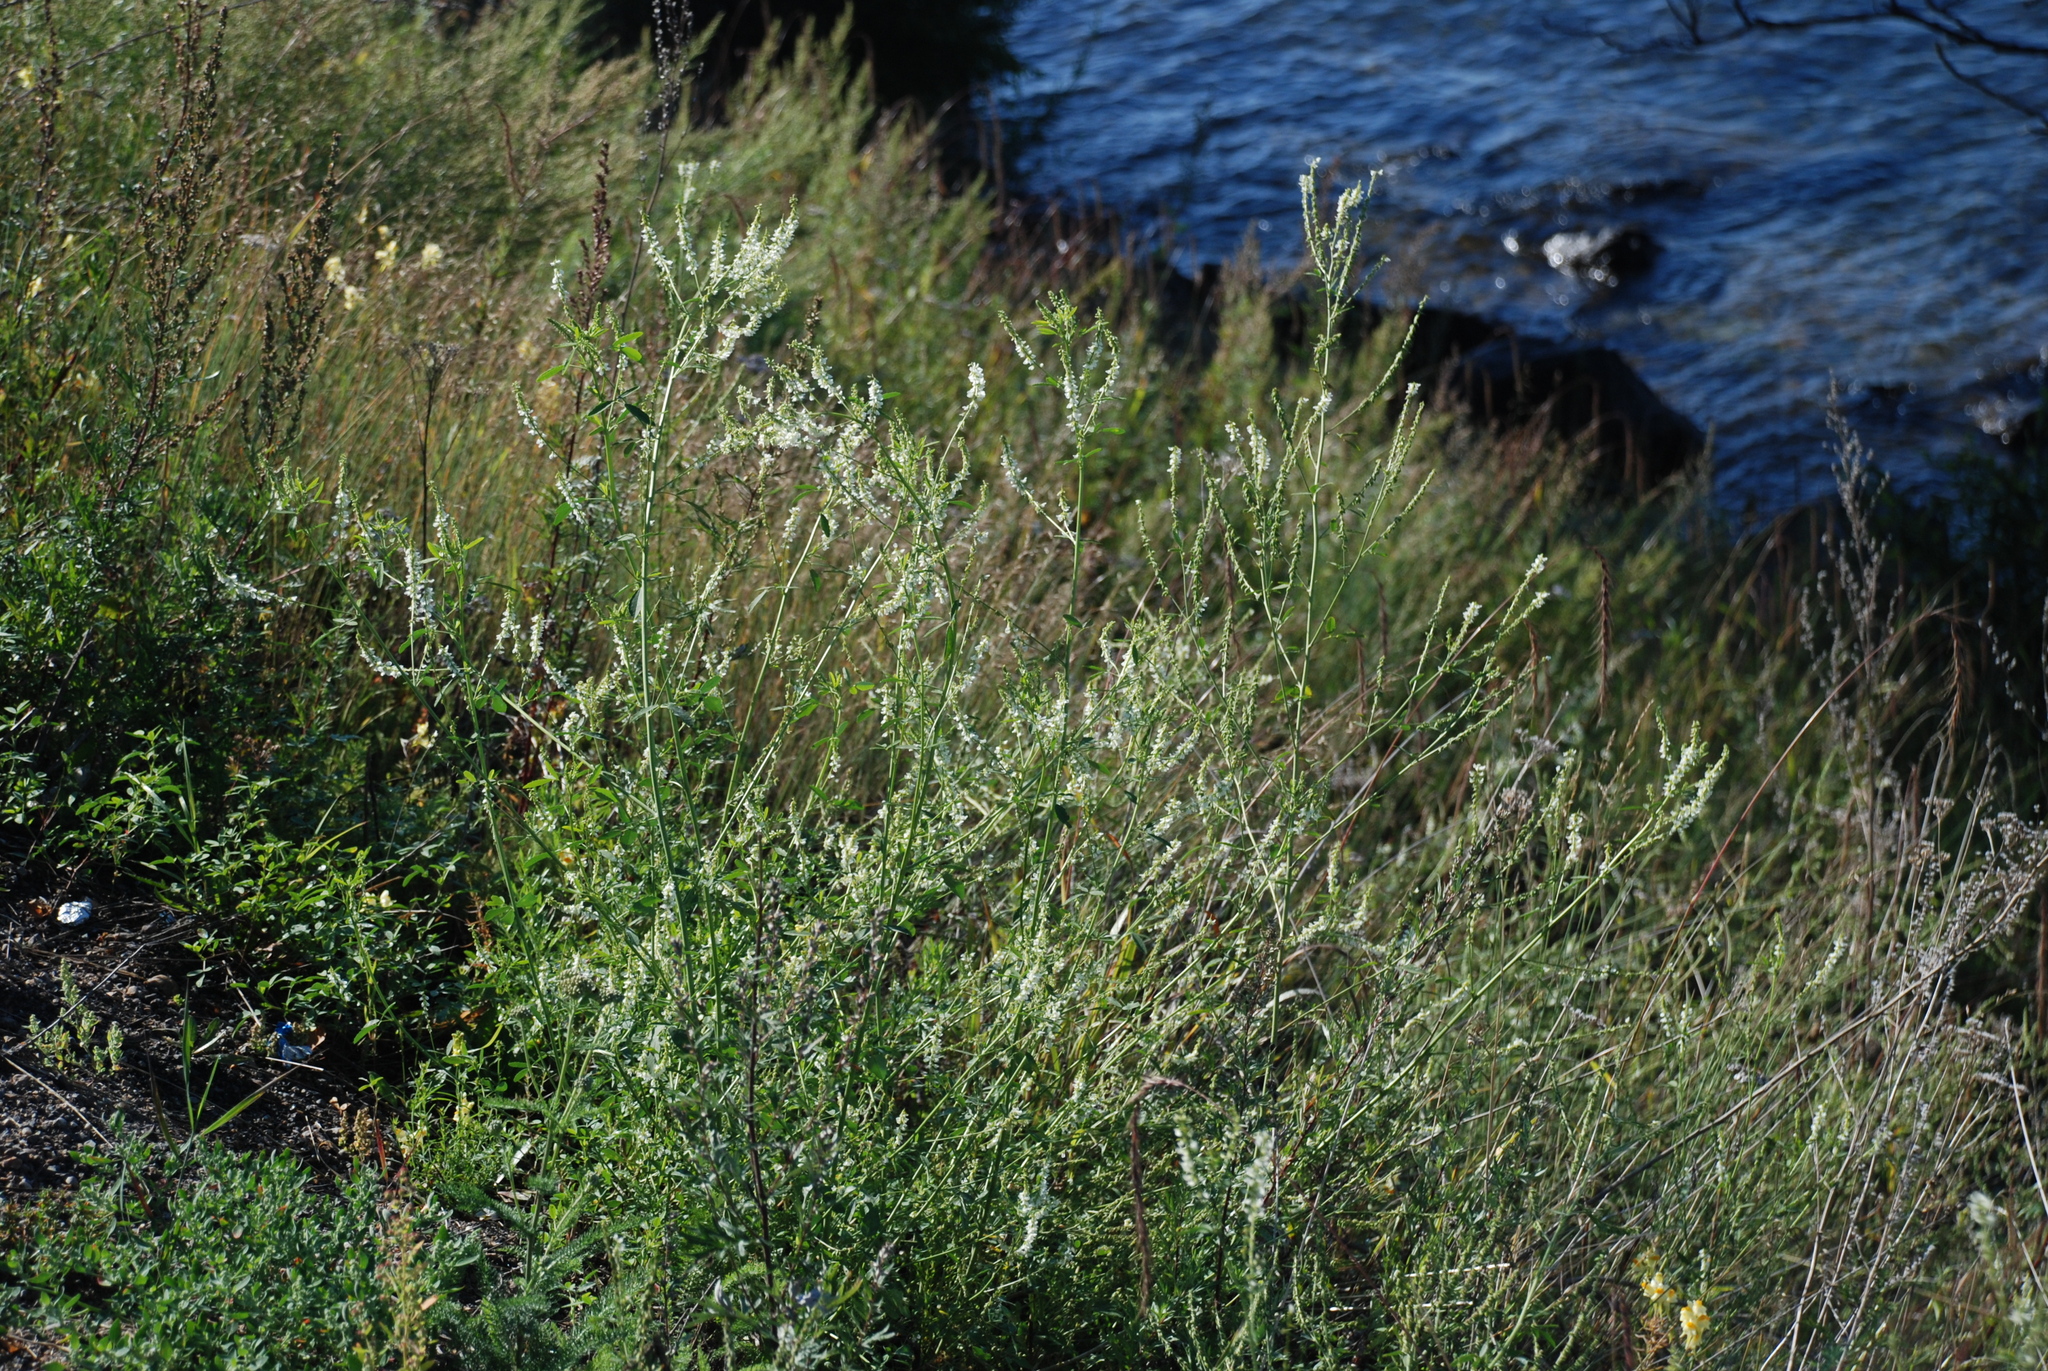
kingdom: Plantae
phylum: Tracheophyta
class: Magnoliopsida
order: Fabales
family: Fabaceae
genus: Melilotus
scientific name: Melilotus albus
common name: White melilot
